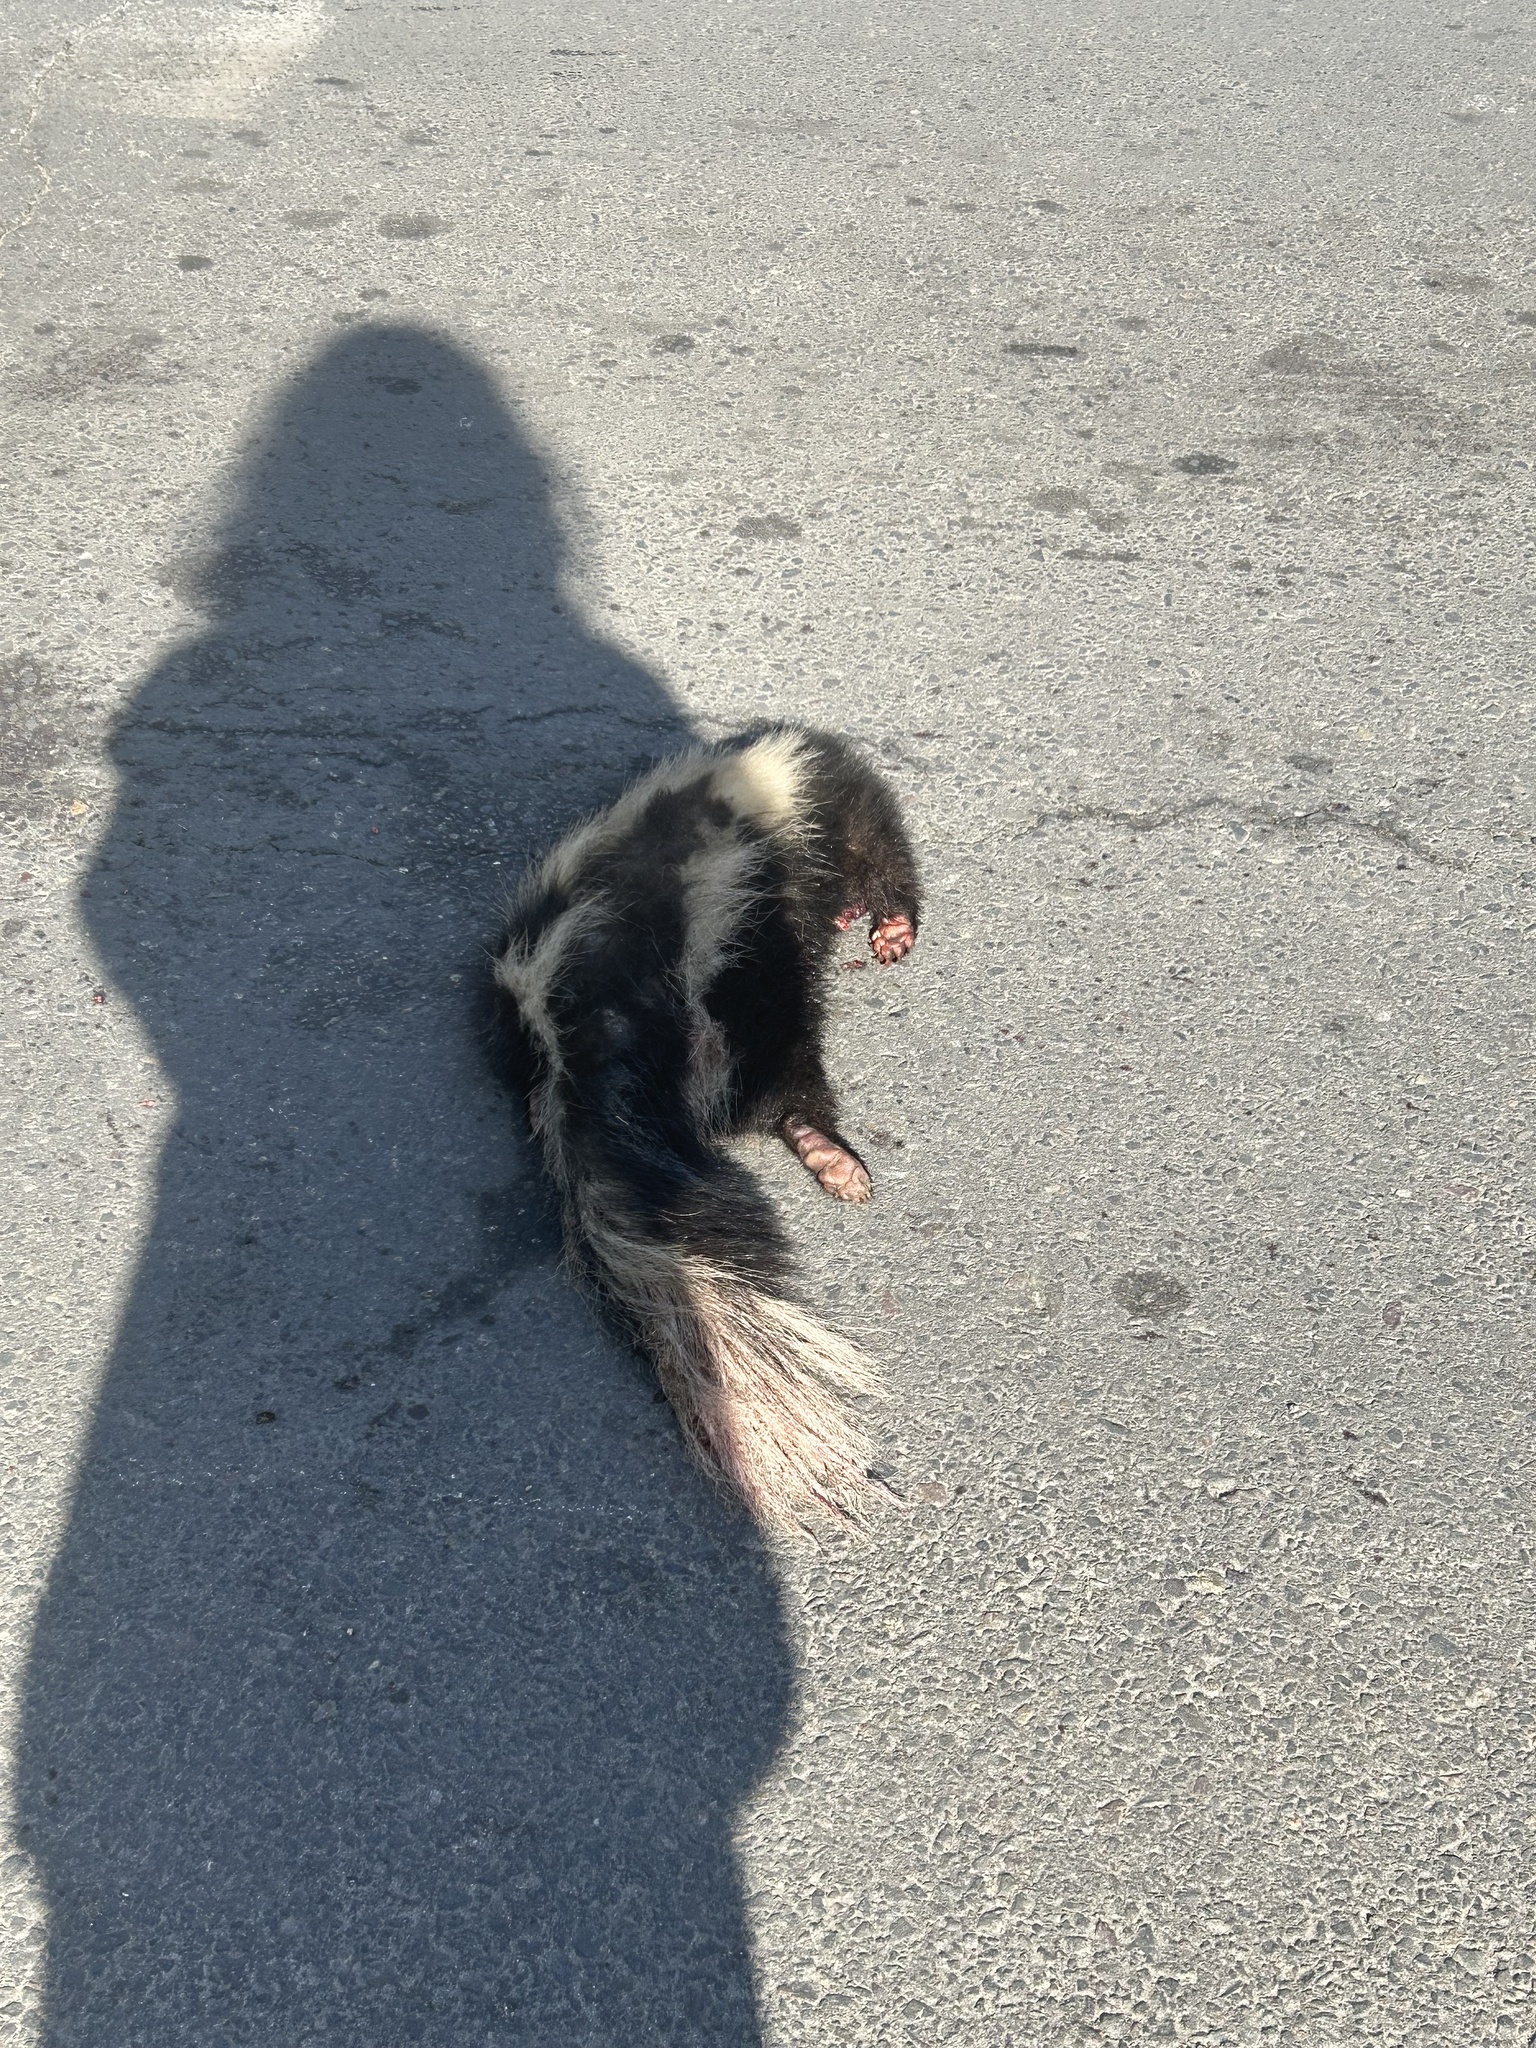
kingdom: Animalia
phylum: Chordata
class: Mammalia
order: Carnivora
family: Mephitidae
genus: Mephitis
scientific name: Mephitis mephitis
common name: Striped skunk
